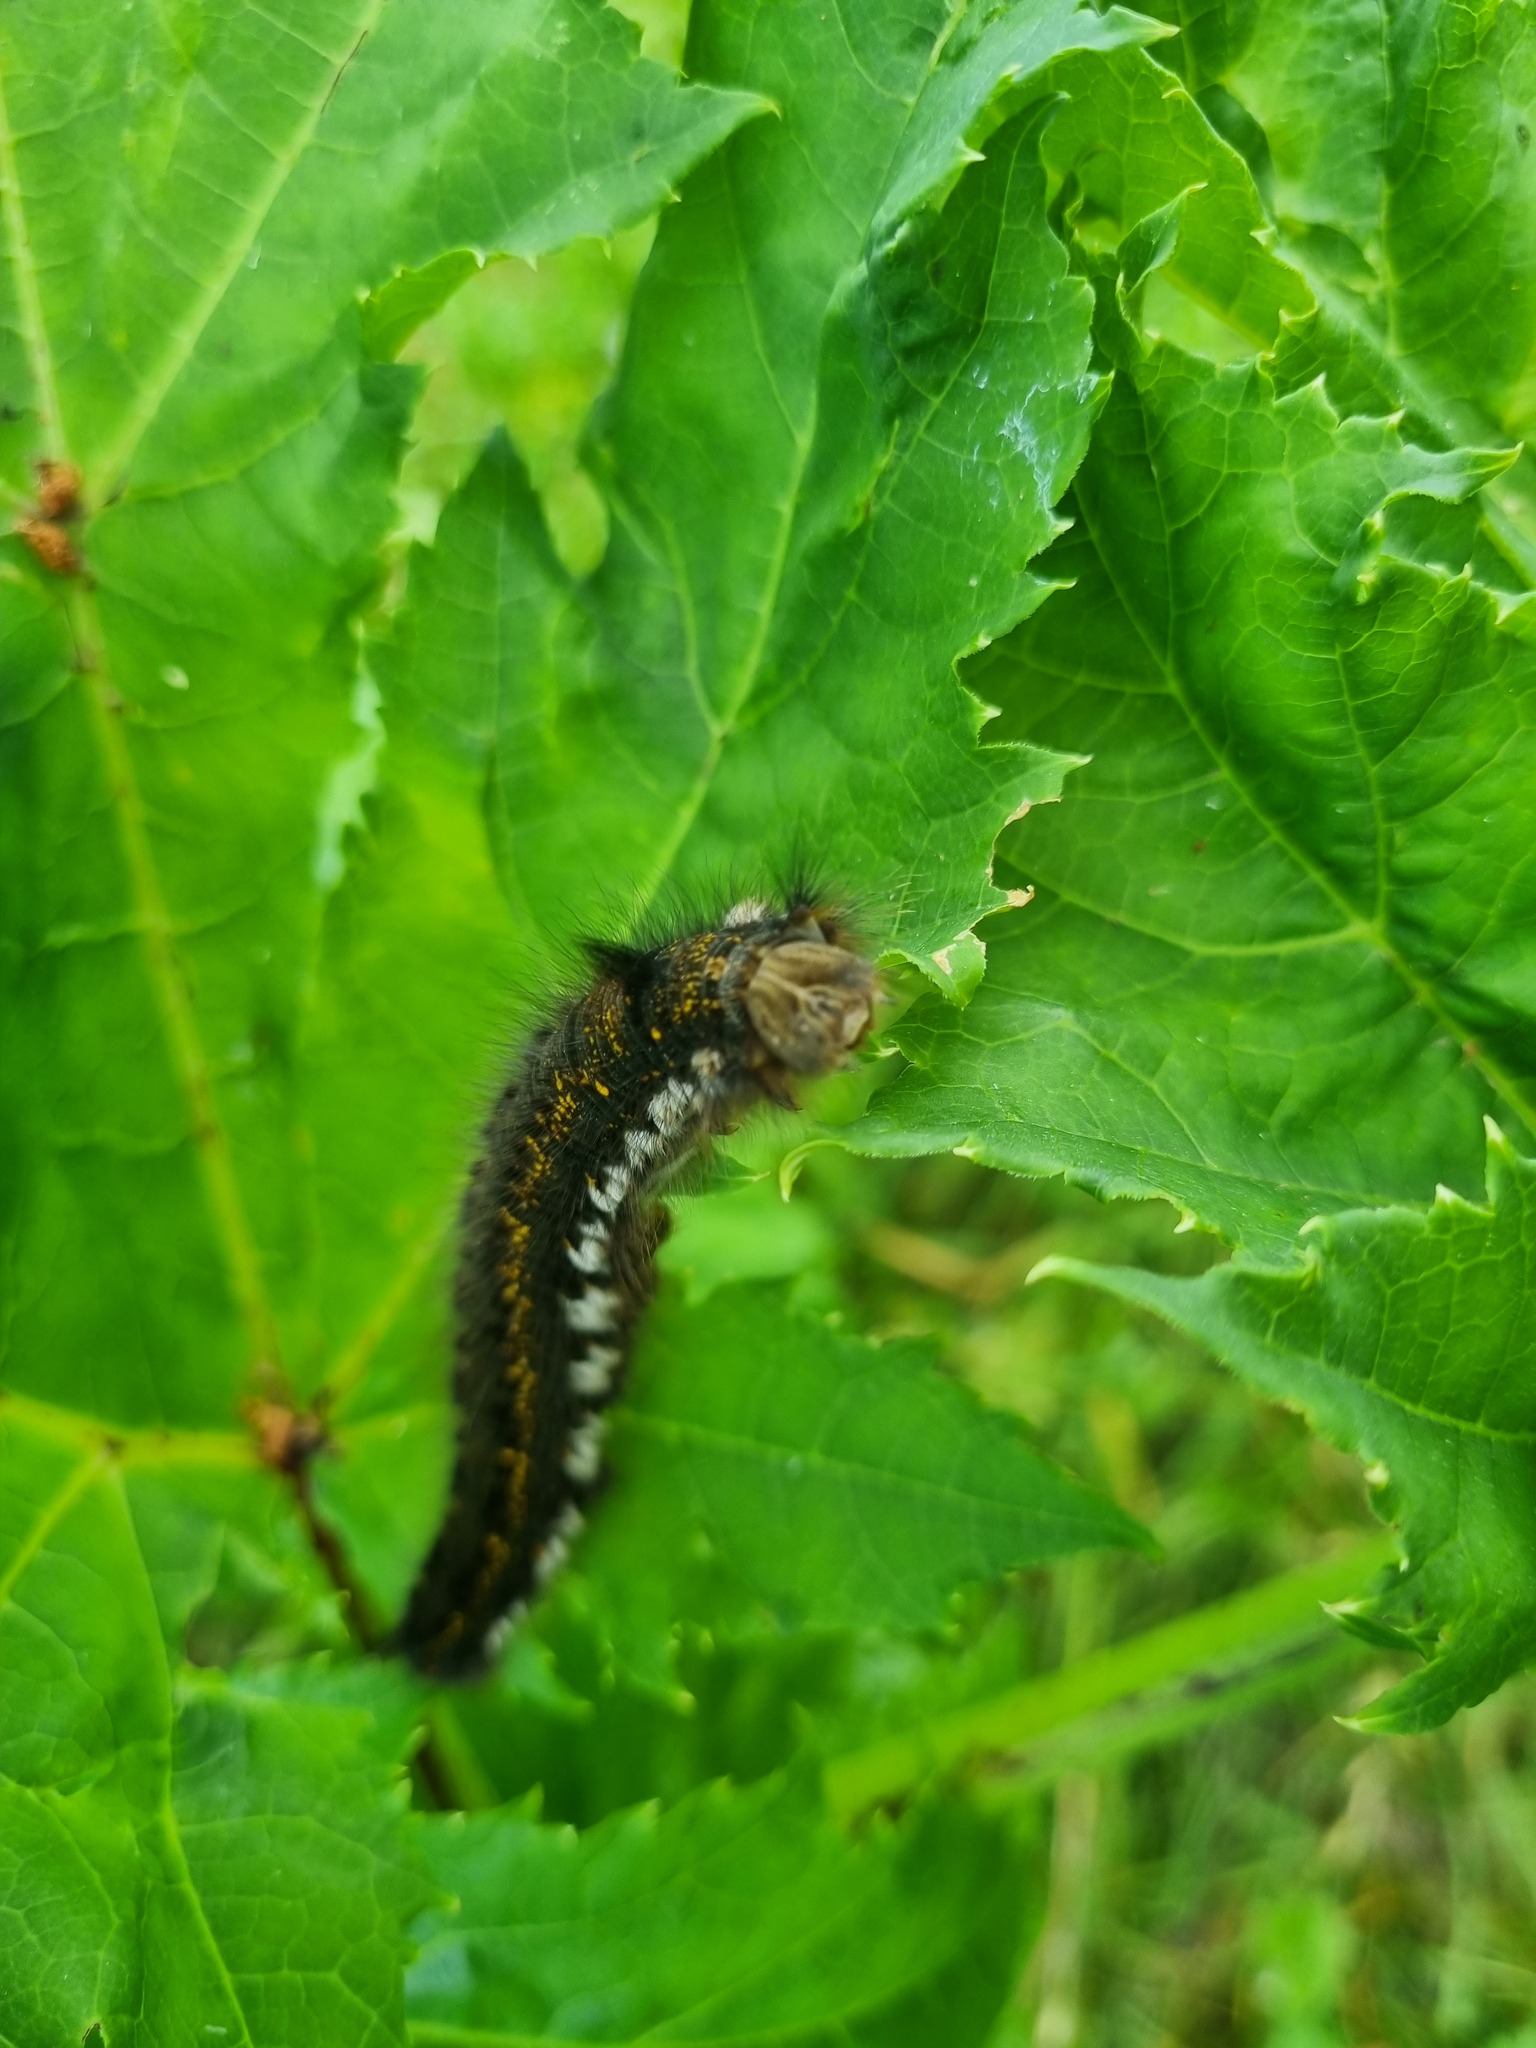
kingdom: Animalia
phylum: Arthropoda
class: Insecta
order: Lepidoptera
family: Lasiocampidae
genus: Euthrix
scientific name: Euthrix potatoria
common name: Drinker
